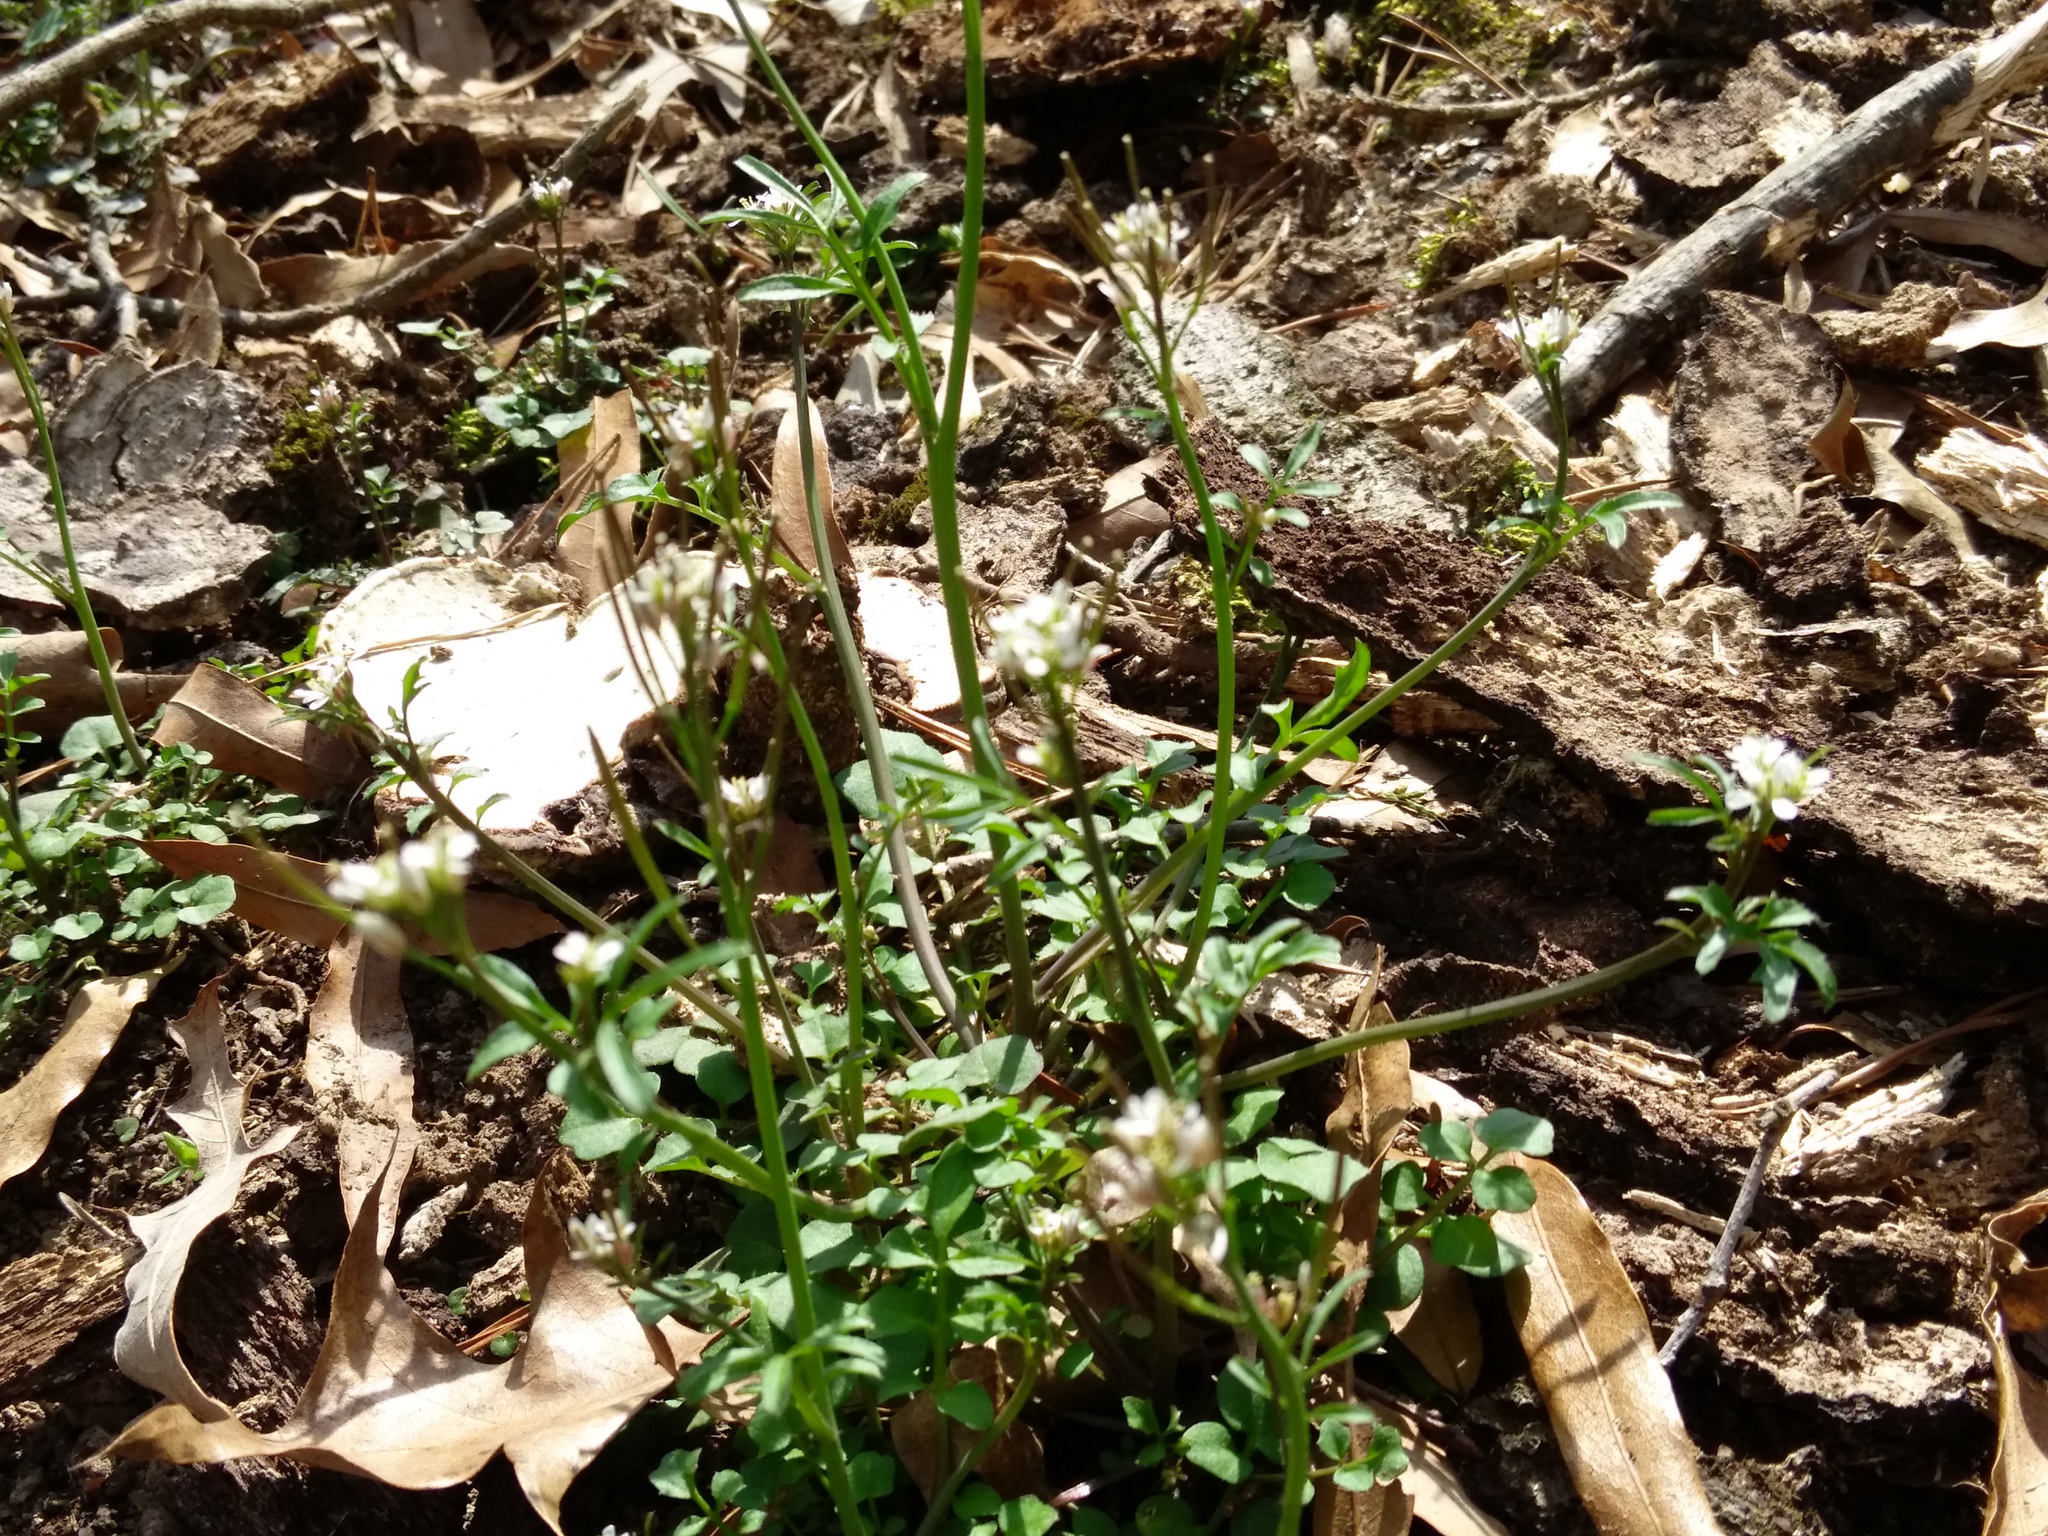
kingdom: Plantae
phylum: Tracheophyta
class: Magnoliopsida
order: Brassicales
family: Brassicaceae
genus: Cardamine
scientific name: Cardamine hirsuta
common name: Hairy bittercress
